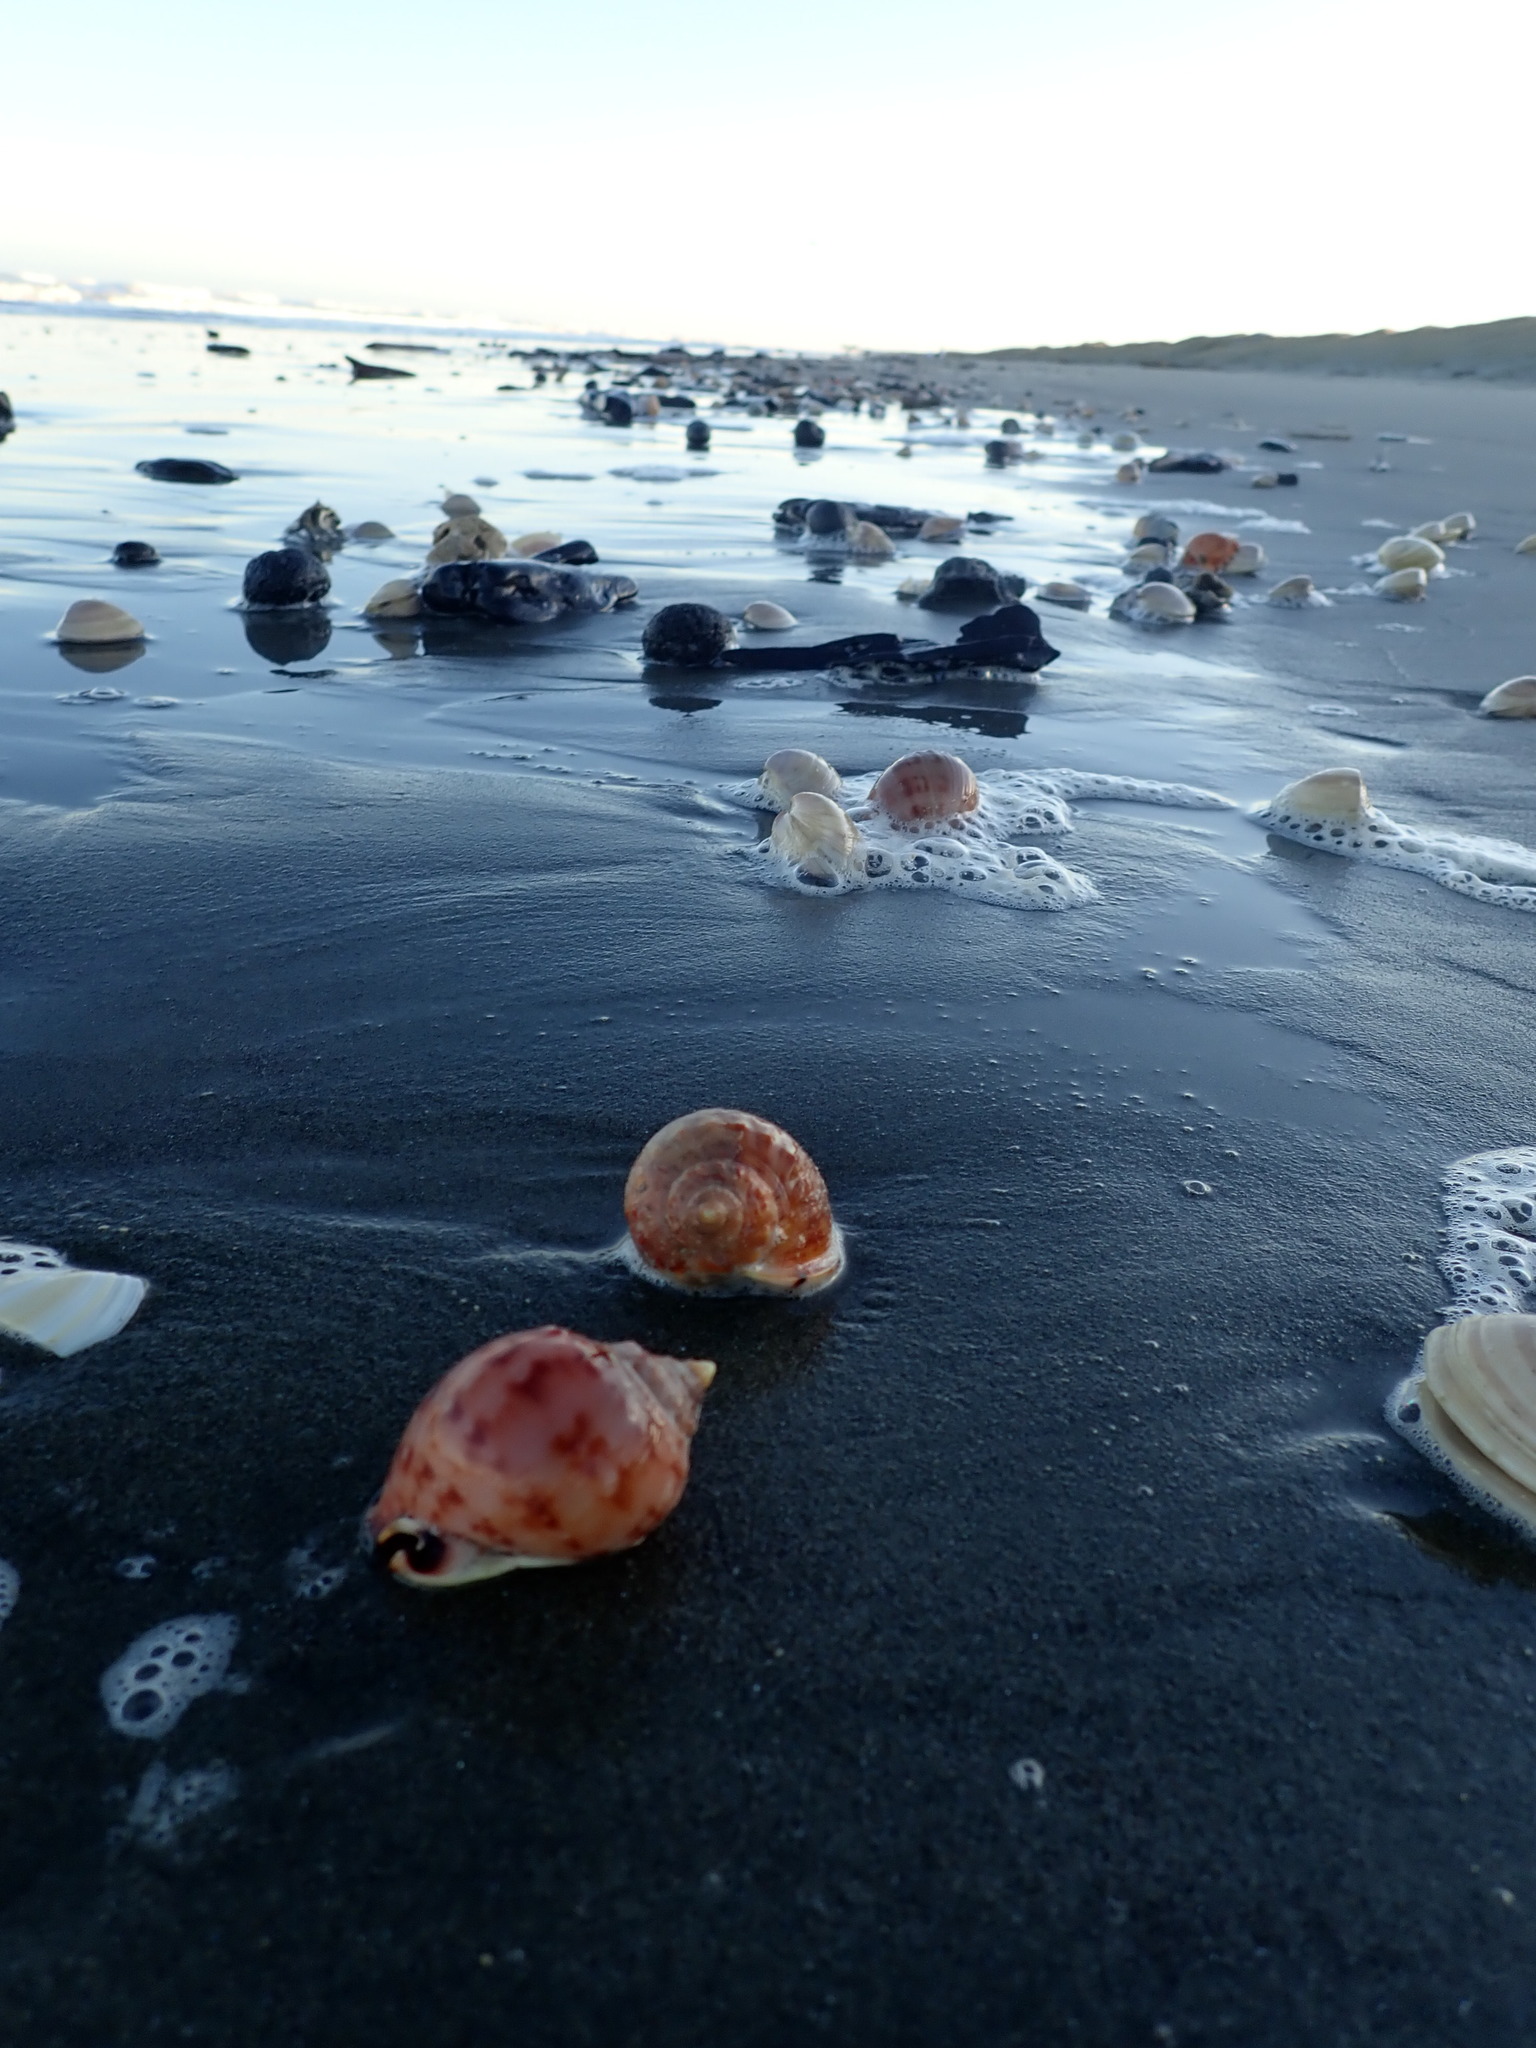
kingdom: Animalia
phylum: Mollusca
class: Gastropoda
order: Littorinimorpha
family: Cassidae
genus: Semicassis
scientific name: Semicassis pyrum
